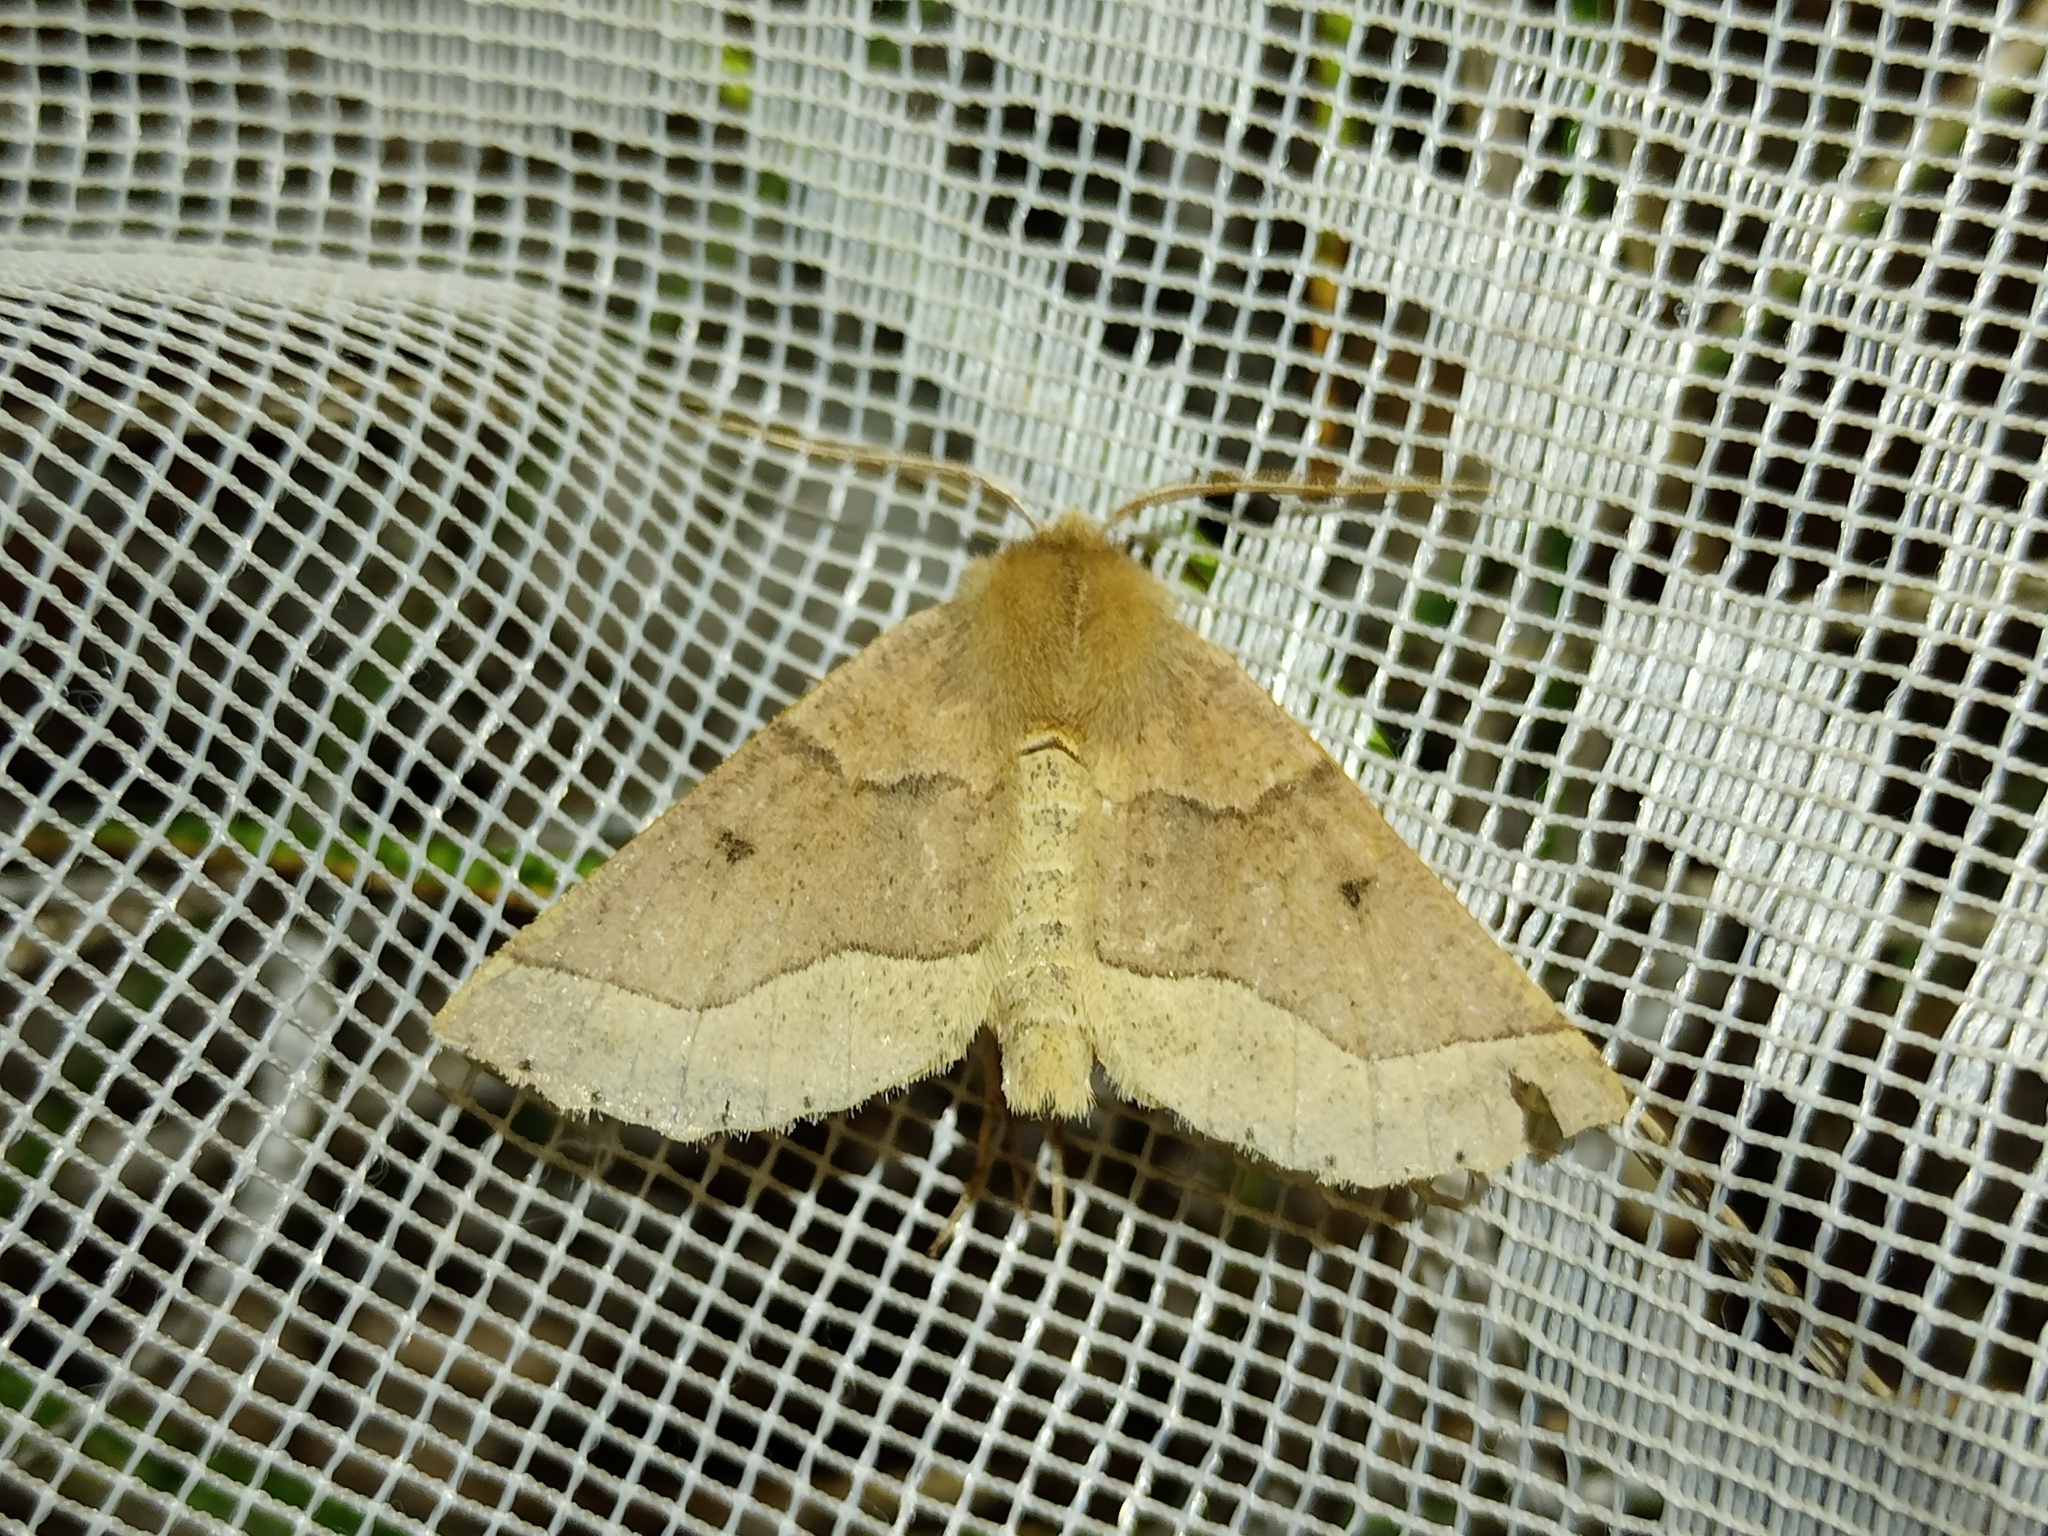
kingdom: Animalia
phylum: Arthropoda
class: Insecta
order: Lepidoptera
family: Geometridae
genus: Crocallis
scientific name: Crocallis tusciaria
